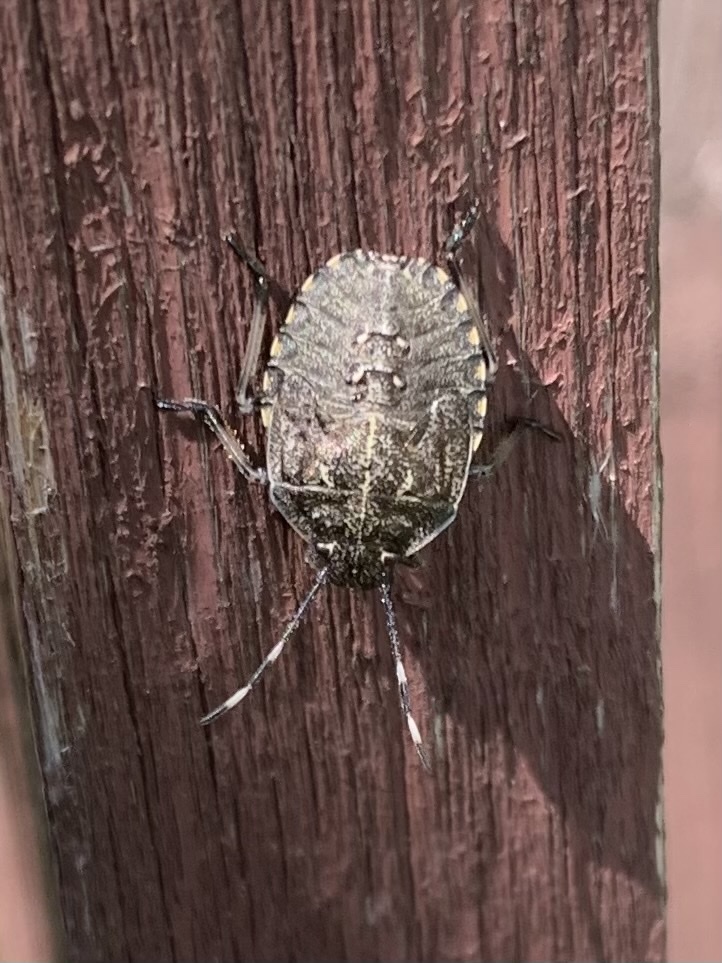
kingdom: Animalia
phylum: Arthropoda
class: Insecta
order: Hemiptera
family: Pentatomidae
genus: Rhaphigaster
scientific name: Rhaphigaster nebulosa
